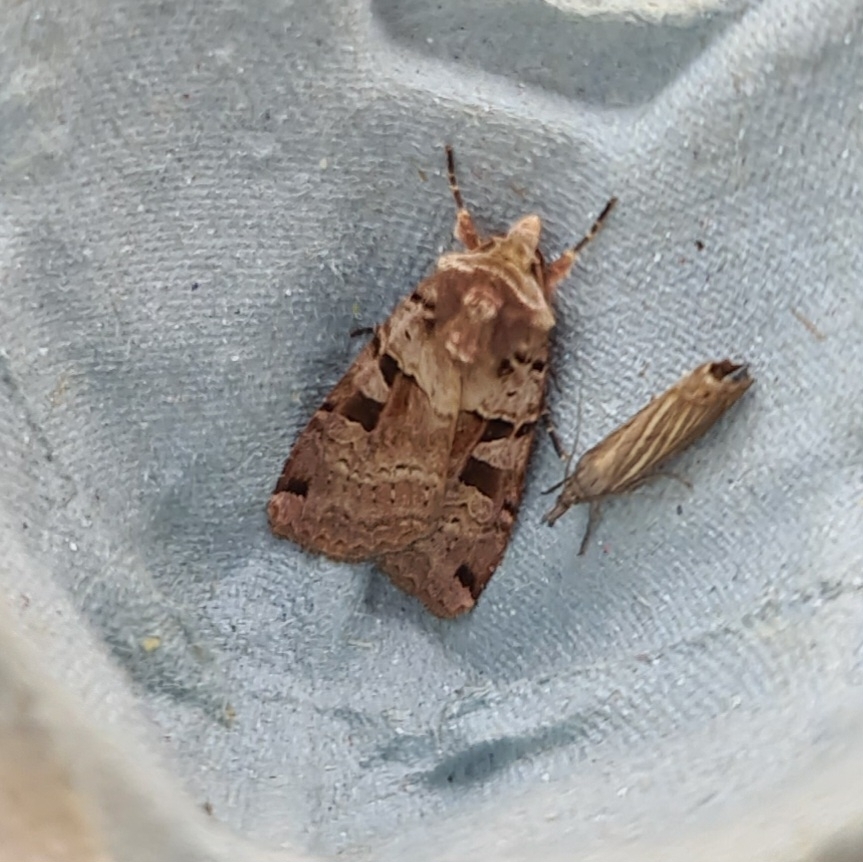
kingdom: Animalia
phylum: Arthropoda
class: Insecta
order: Lepidoptera
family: Noctuidae
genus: Xestia
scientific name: Xestia triangulum
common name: Double square-spot
